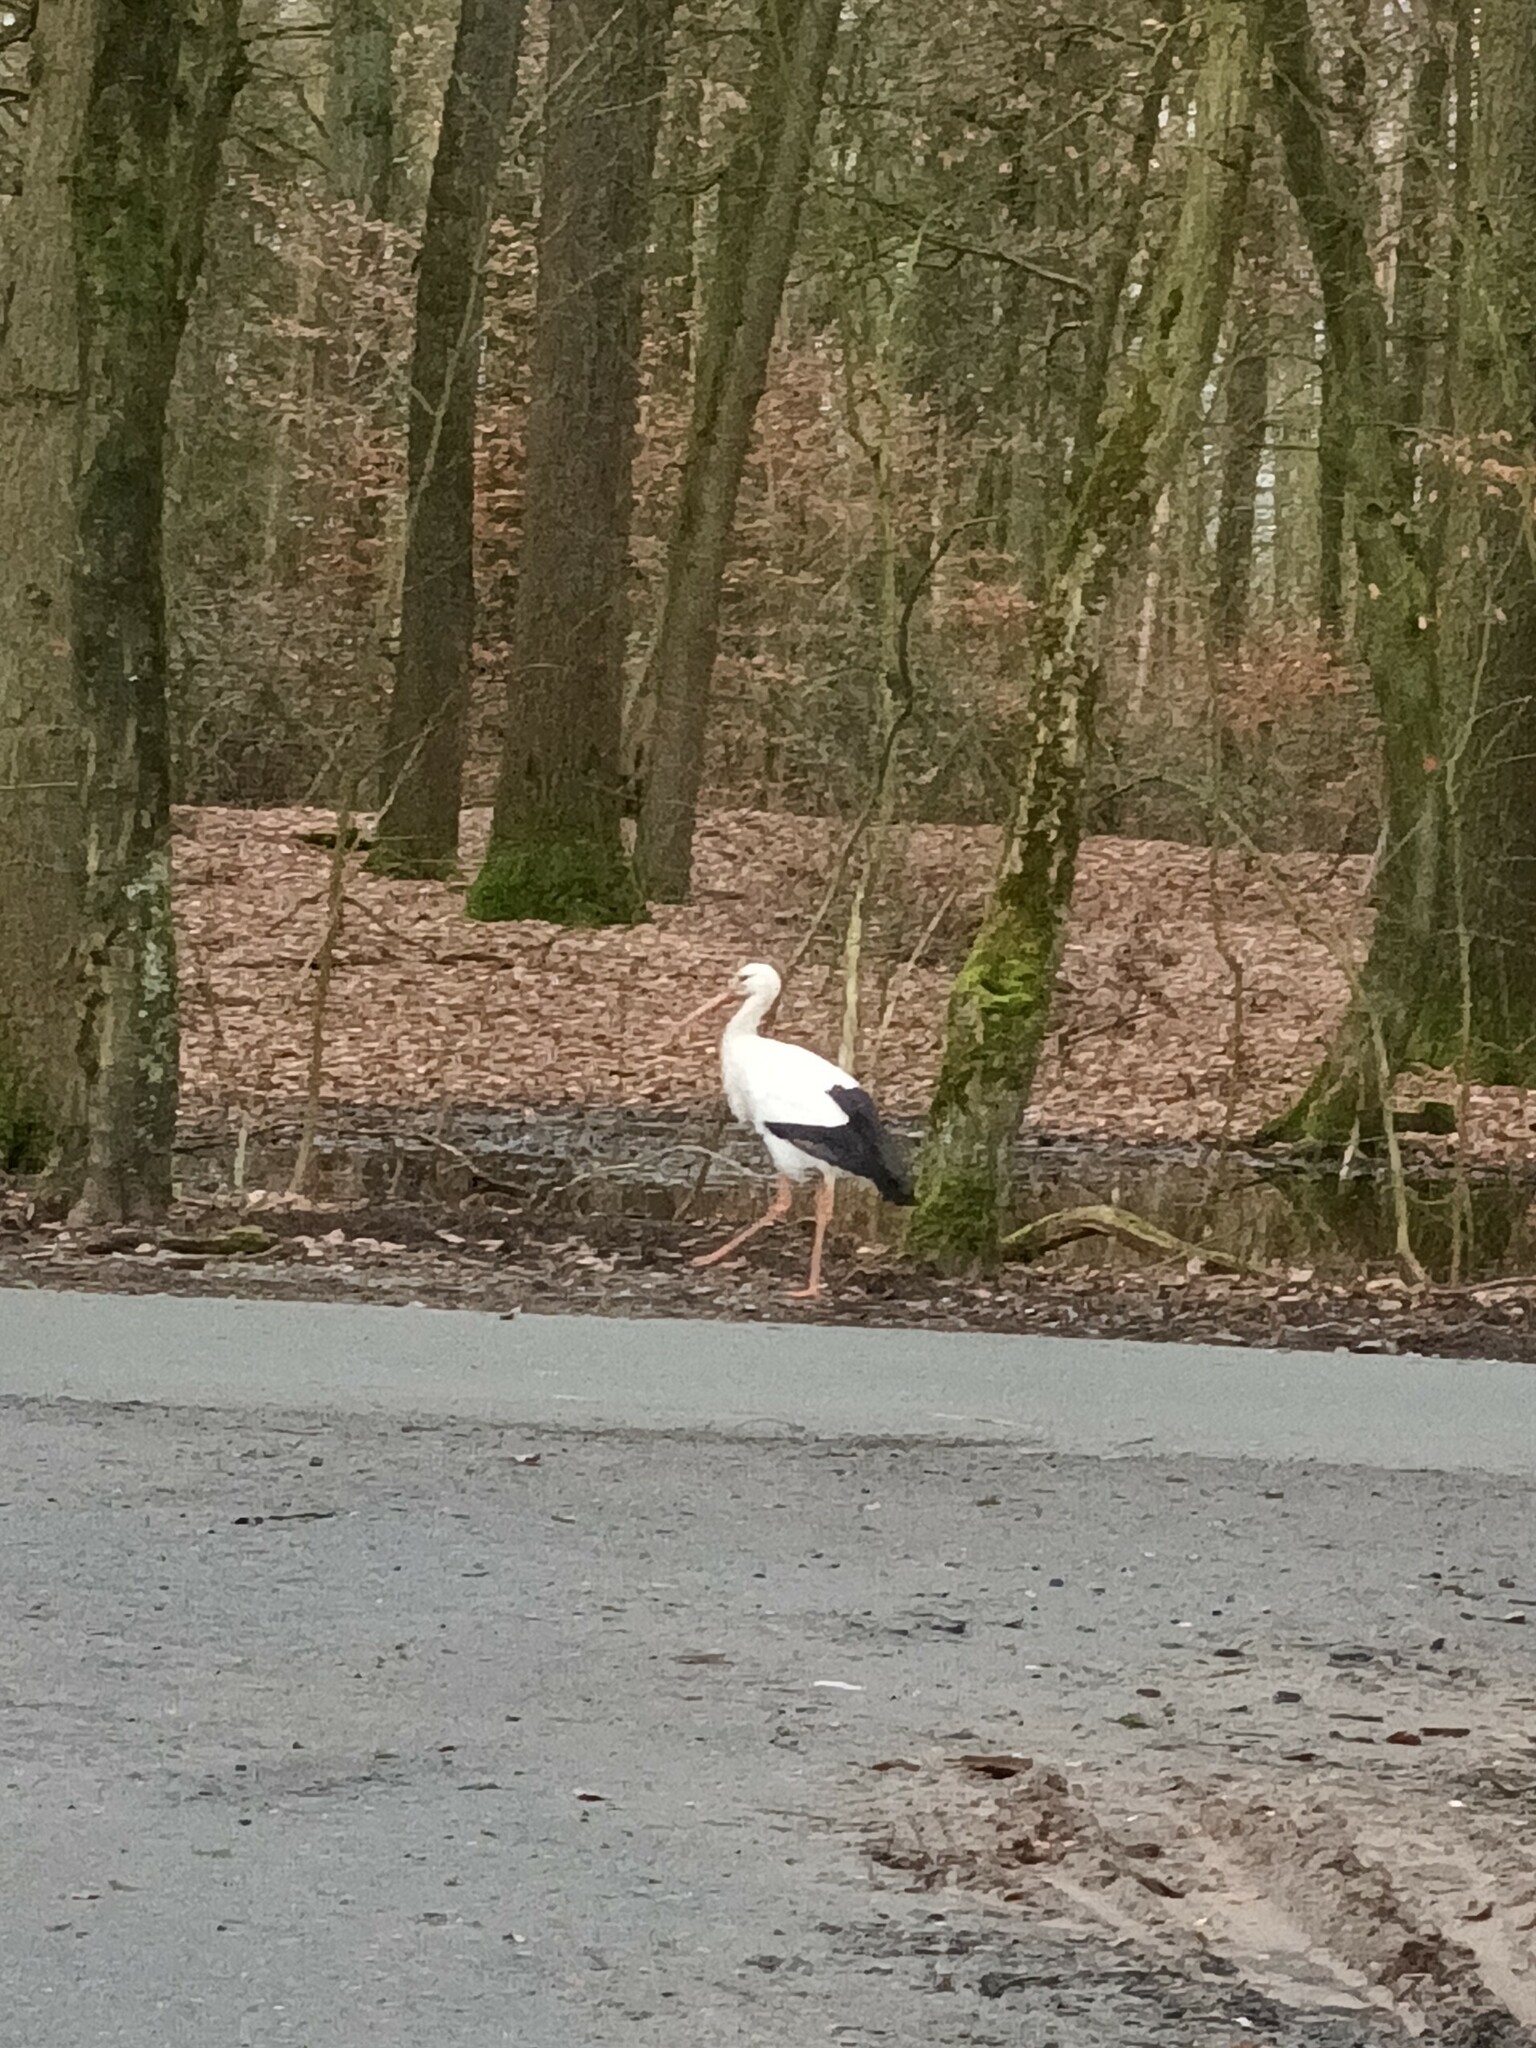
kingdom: Animalia
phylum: Chordata
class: Aves
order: Ciconiiformes
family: Ciconiidae
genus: Ciconia
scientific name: Ciconia ciconia
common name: White stork
